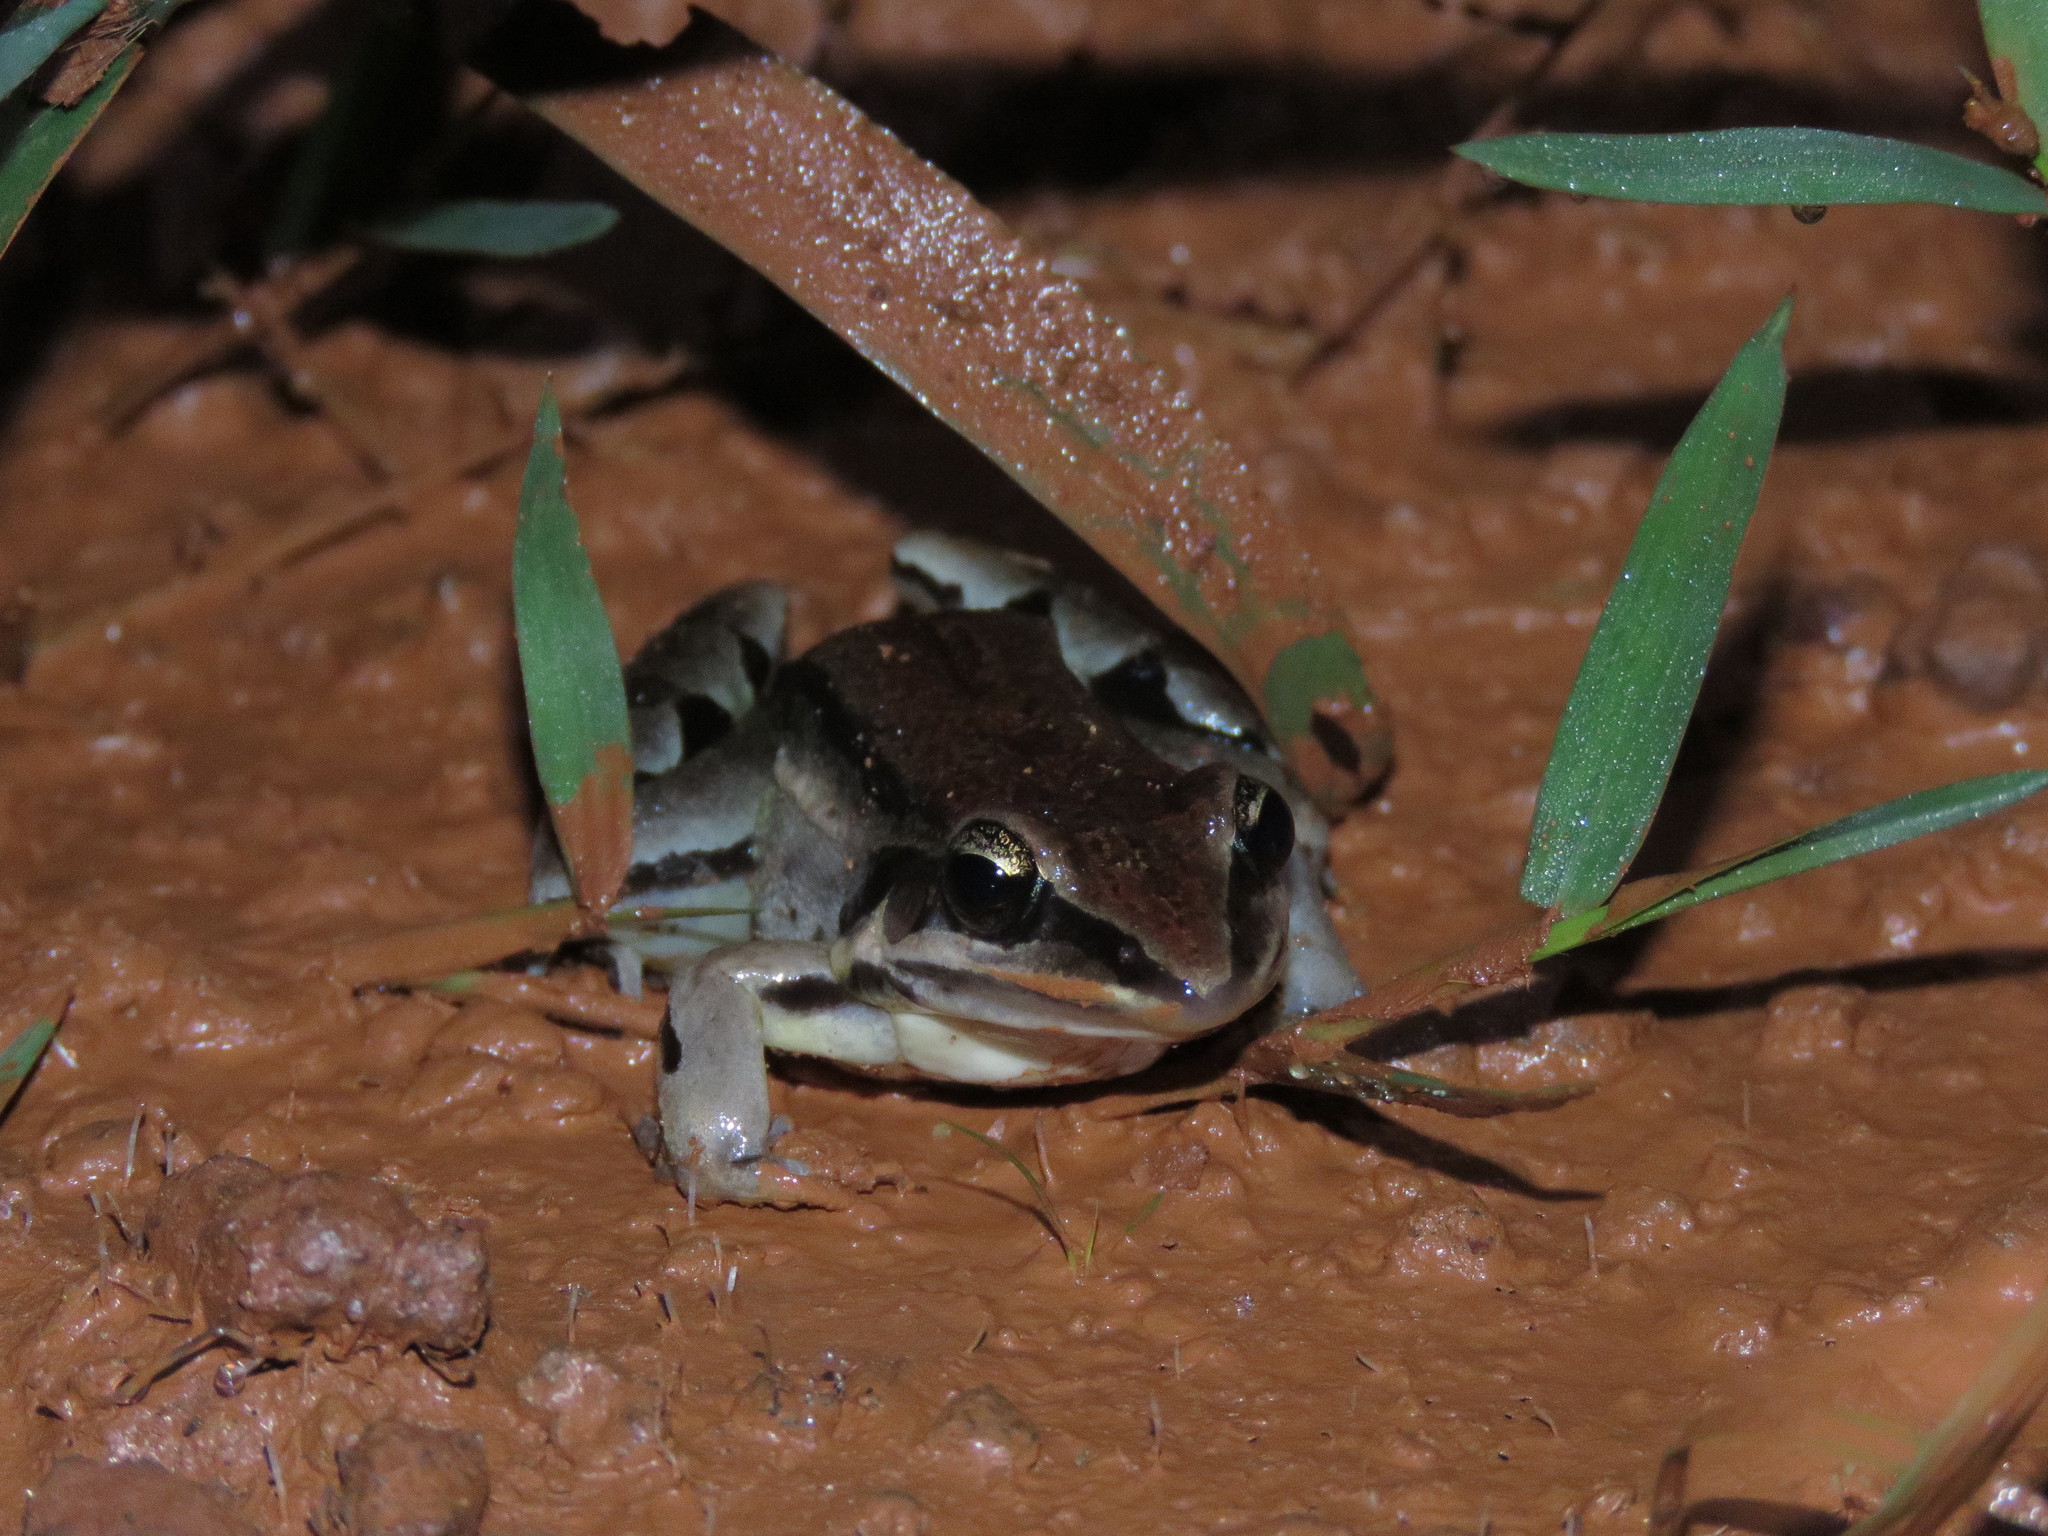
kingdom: Animalia
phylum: Chordata
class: Amphibia
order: Anura
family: Leptodactylidae
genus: Leptodactylus
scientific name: Leptodactylus elenae
